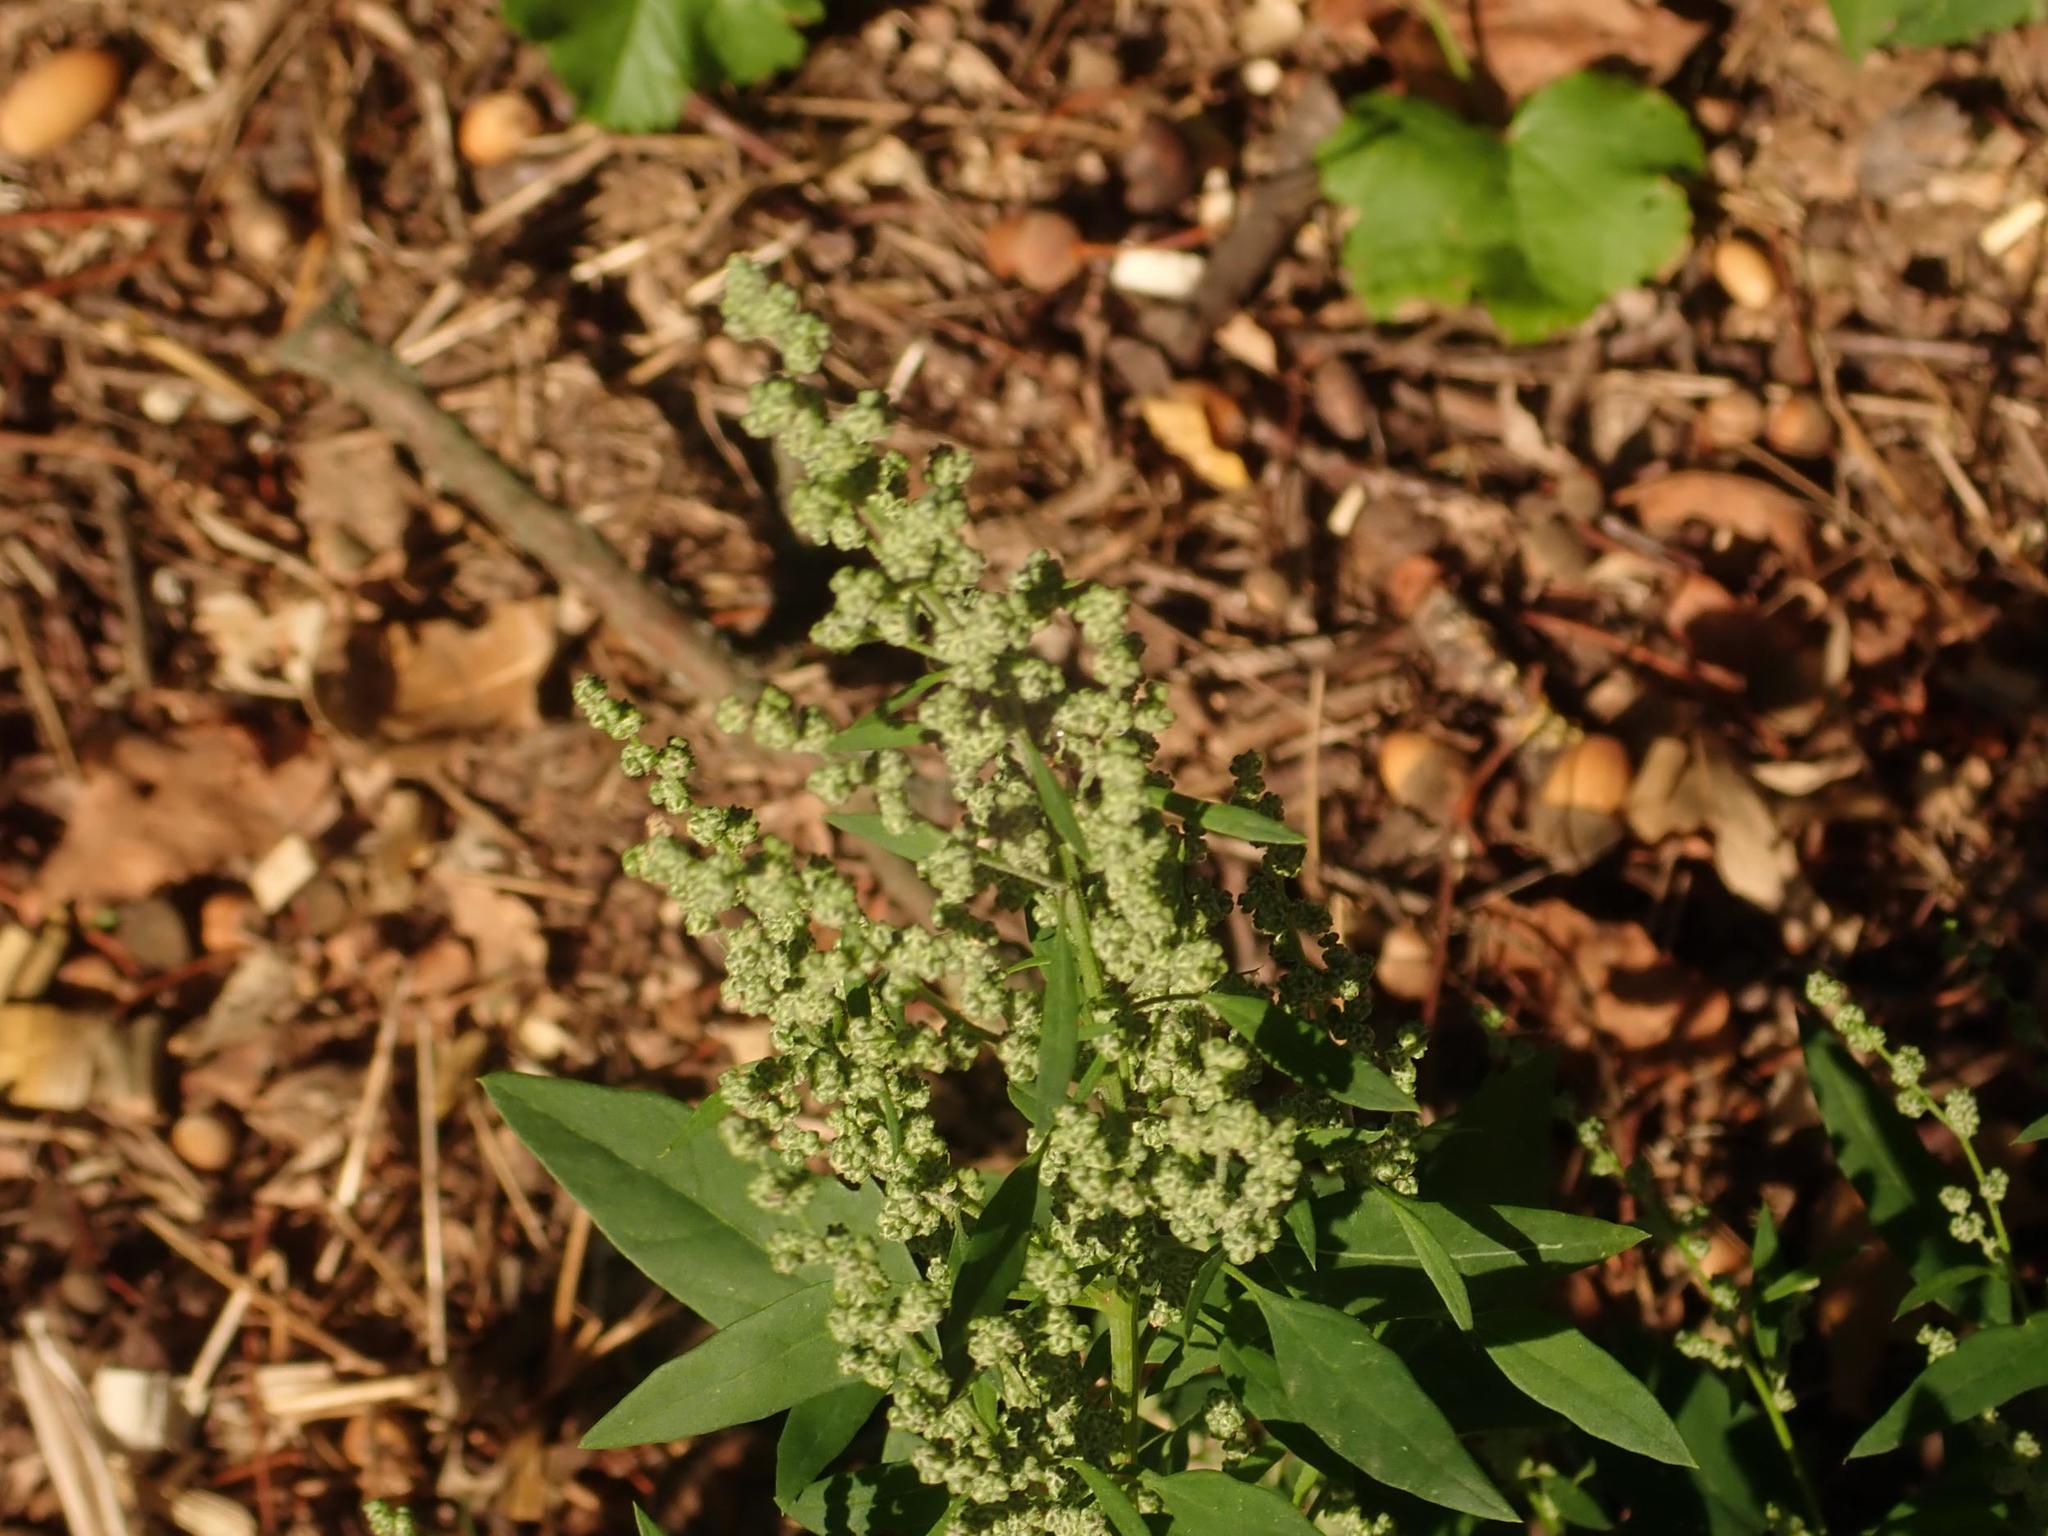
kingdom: Plantae
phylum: Tracheophyta
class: Magnoliopsida
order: Caryophyllales
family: Amaranthaceae
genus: Chenopodium
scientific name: Chenopodium album
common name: Fat-hen
